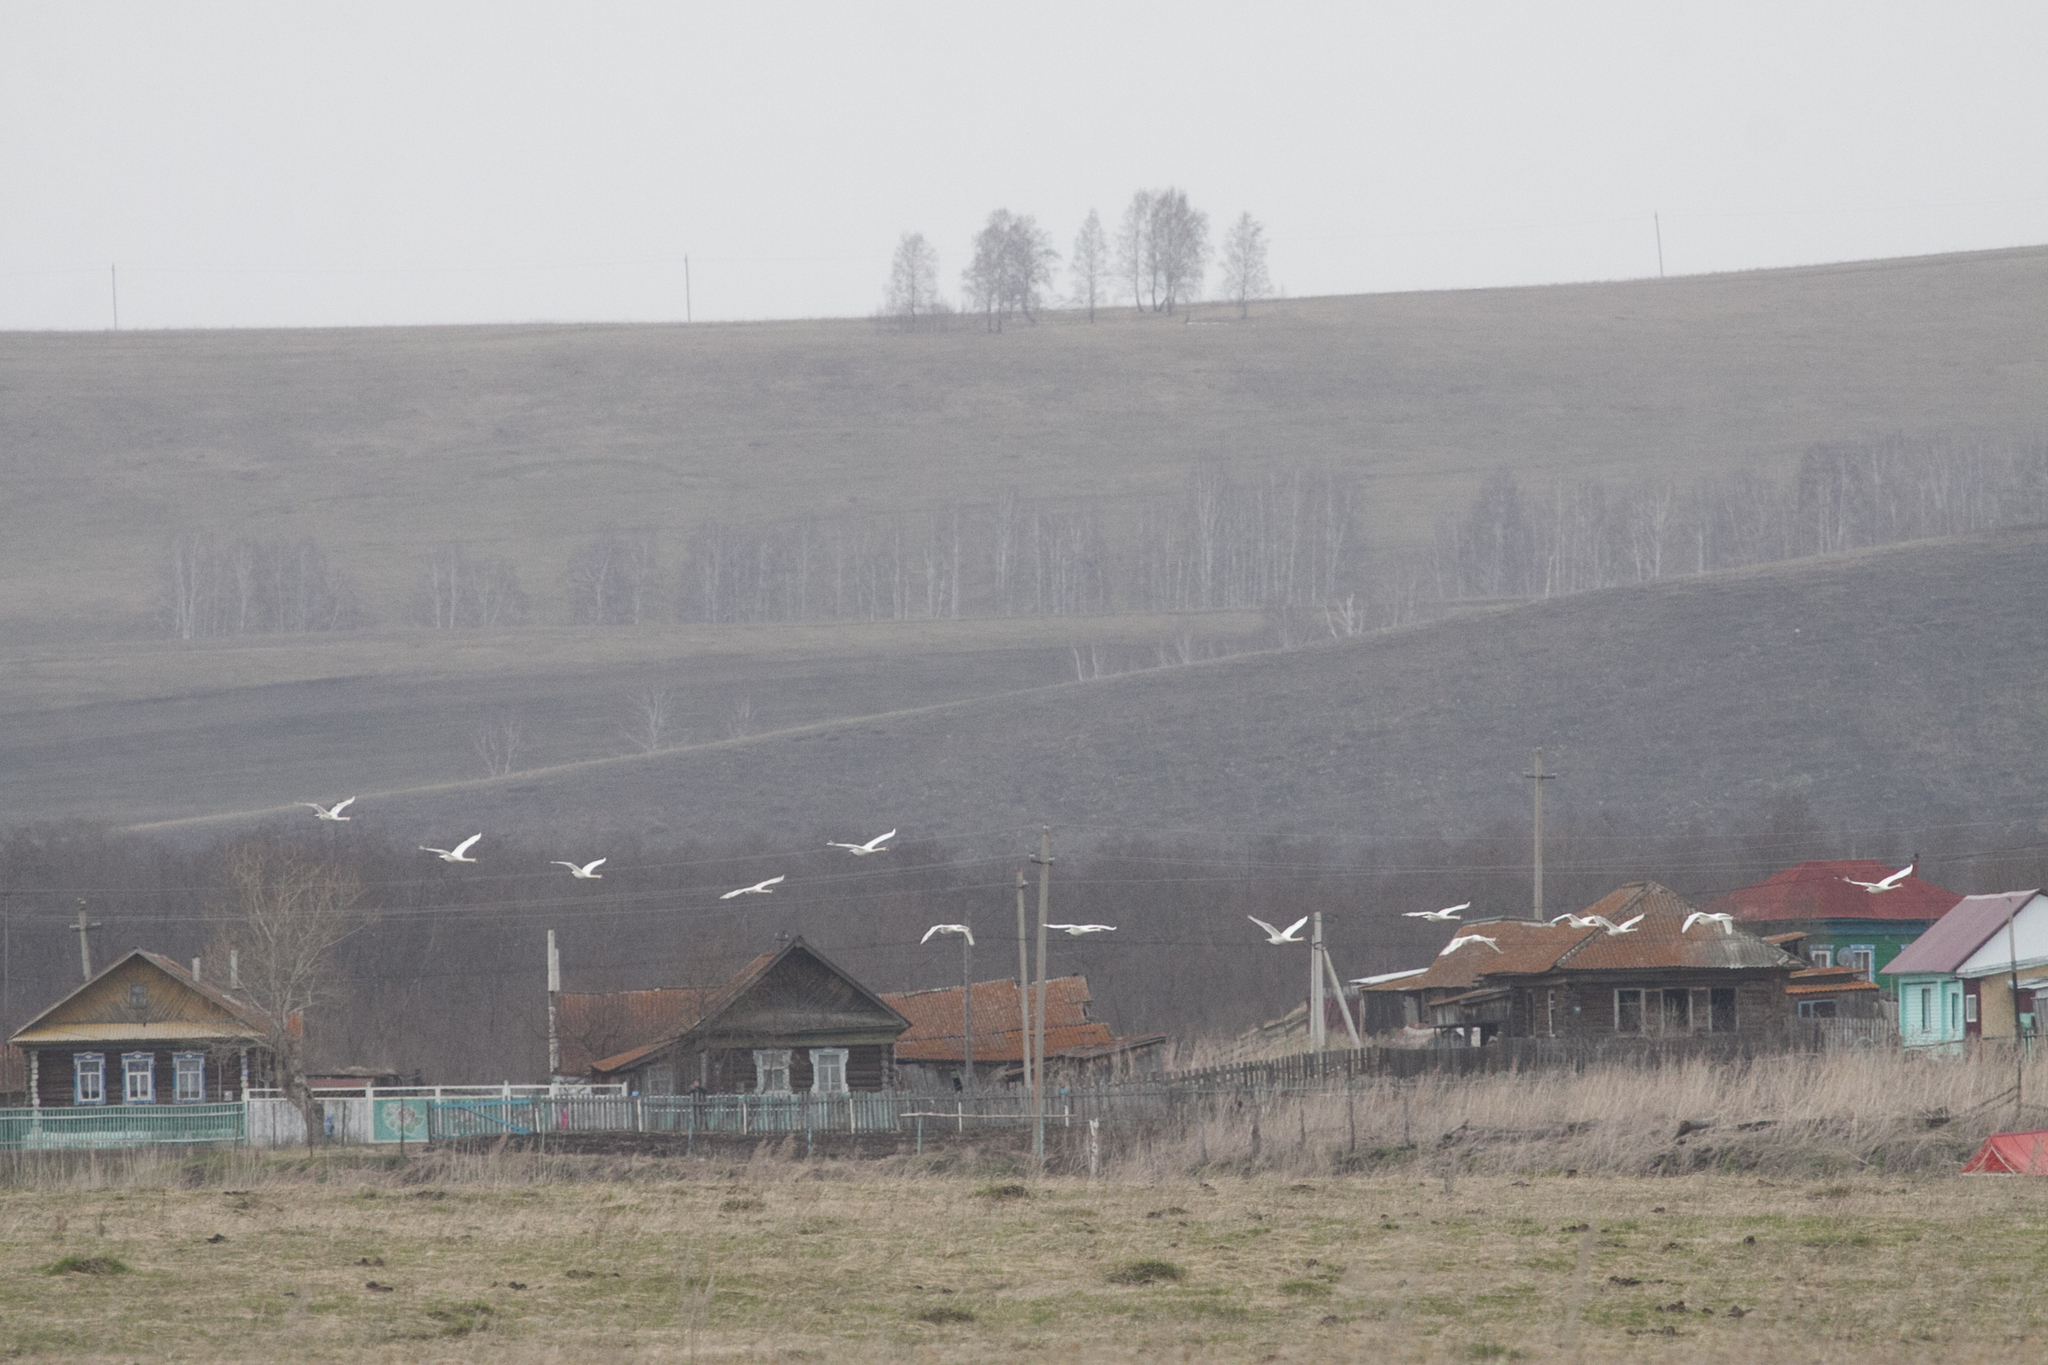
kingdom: Animalia
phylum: Chordata
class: Aves
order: Anseriformes
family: Anatidae
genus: Cygnus
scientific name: Cygnus olor
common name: Mute swan
